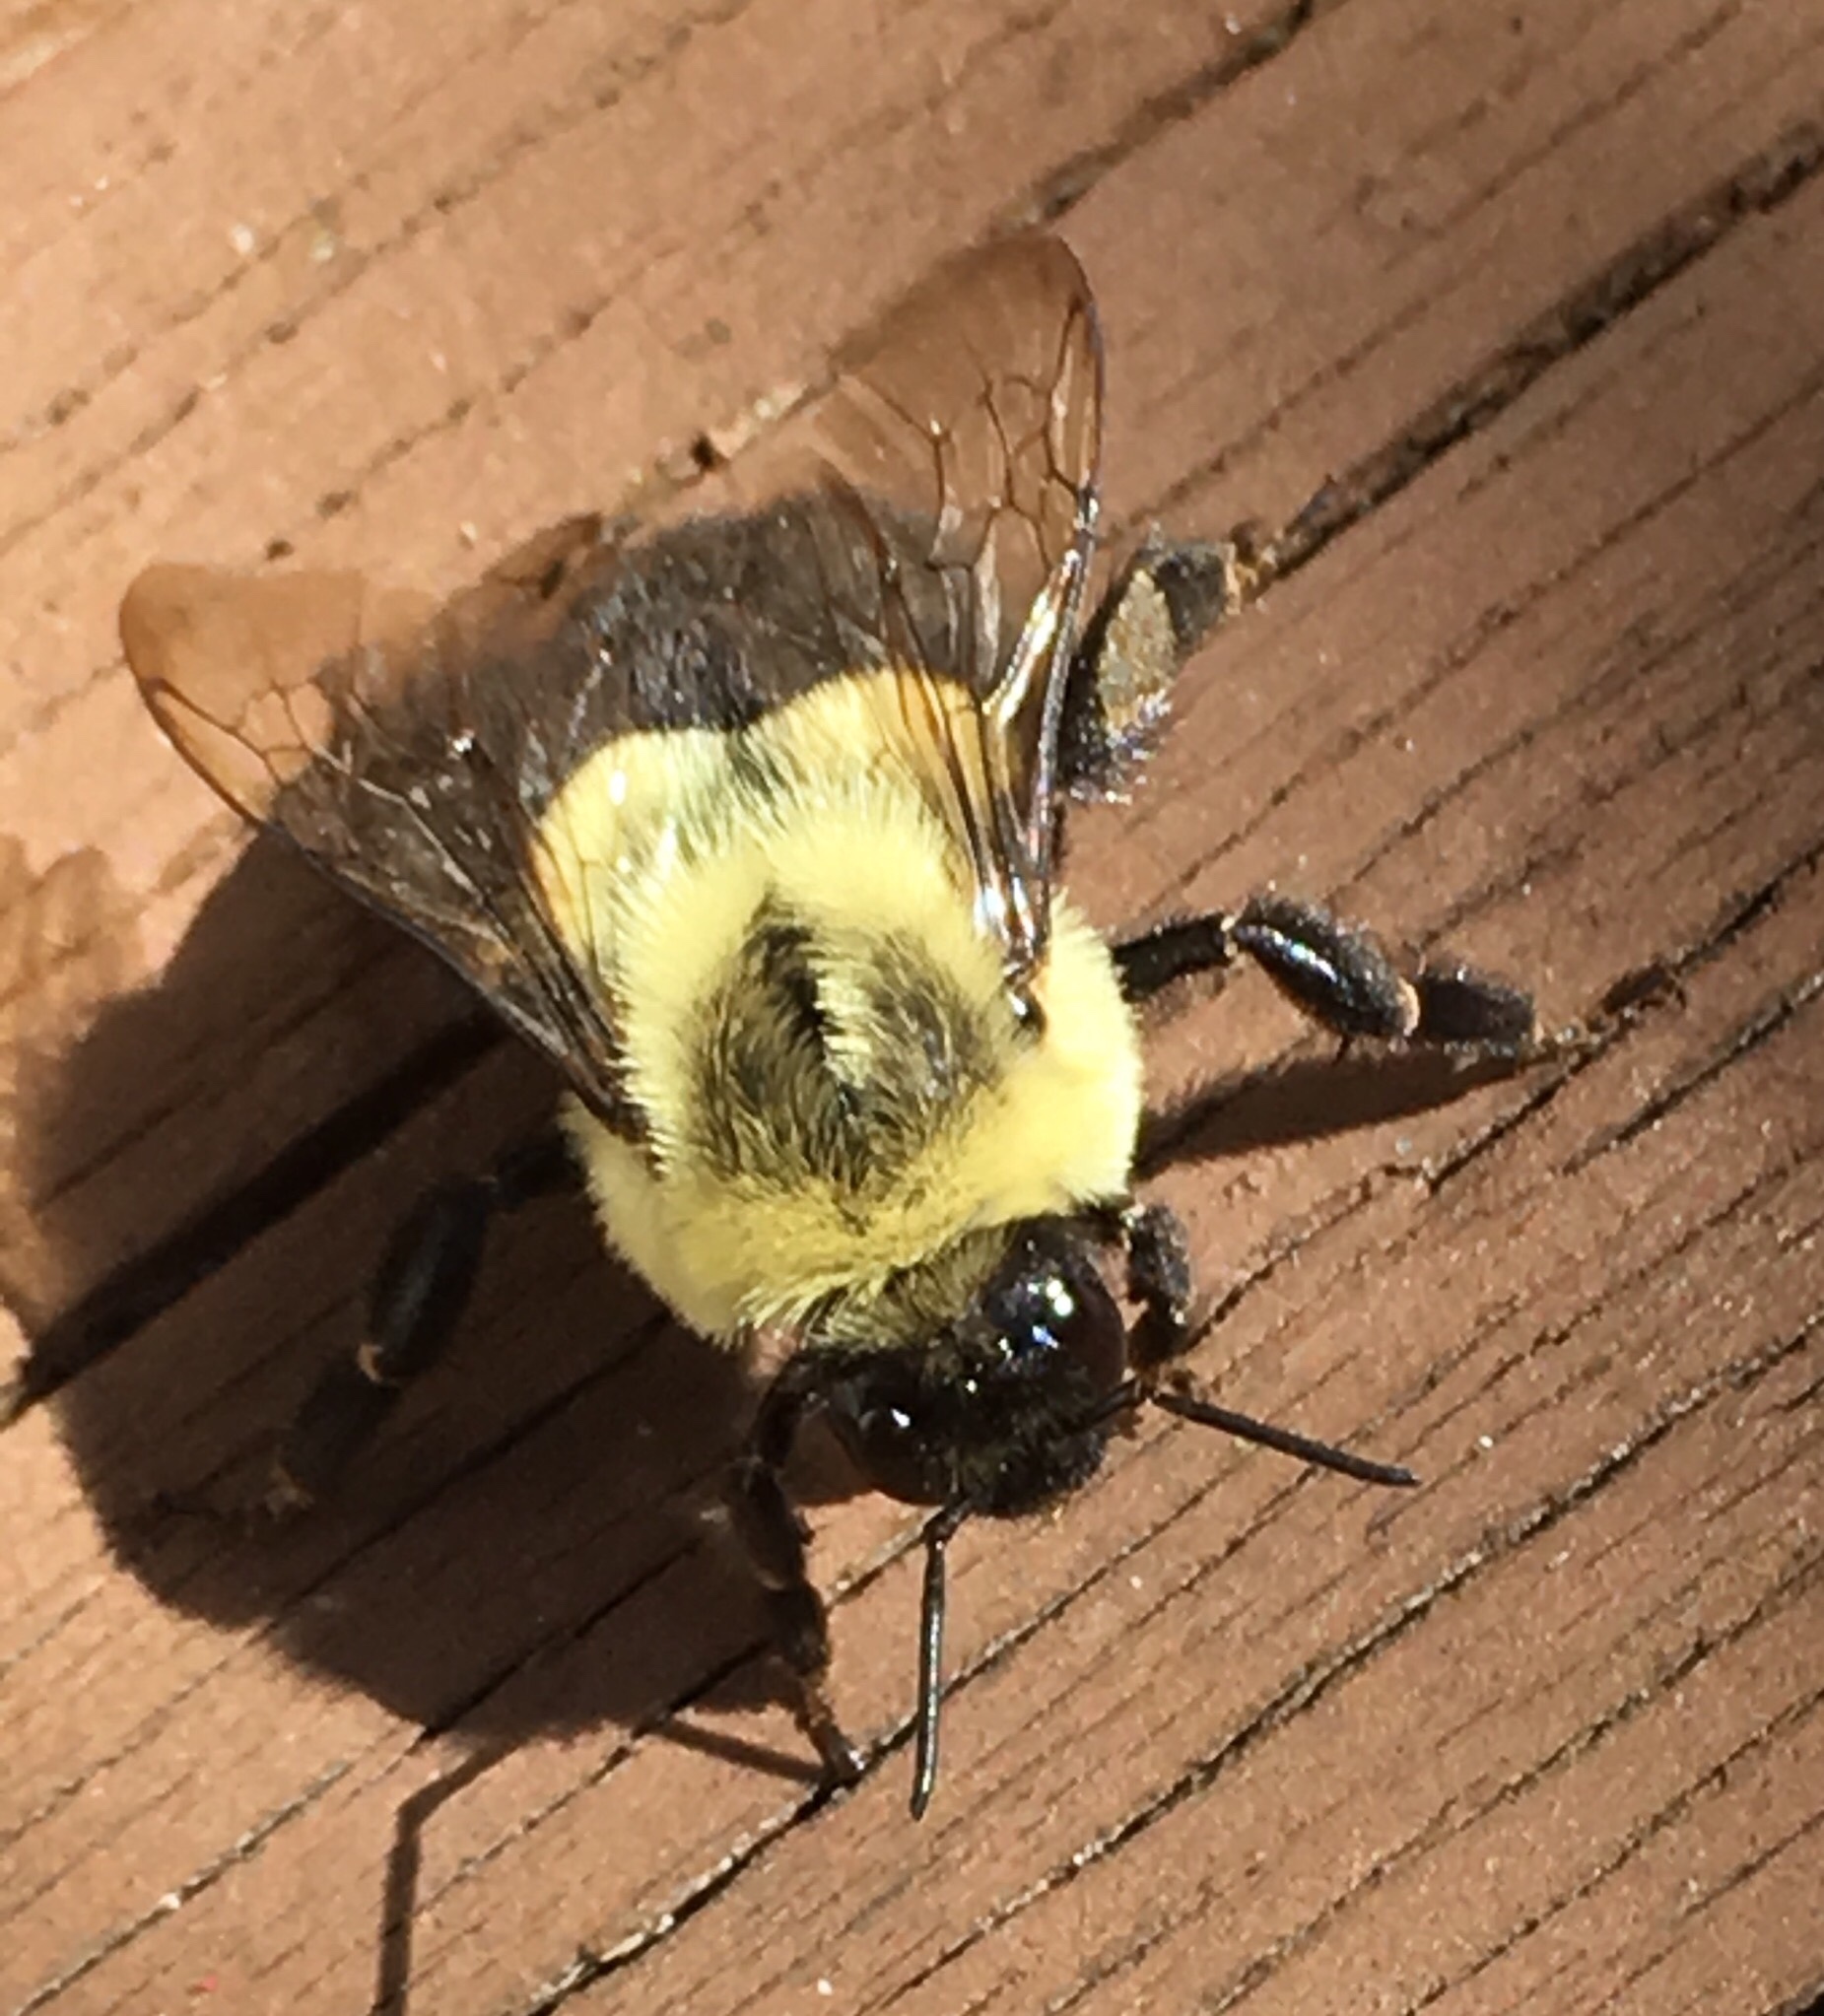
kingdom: Animalia
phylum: Arthropoda
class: Insecta
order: Hymenoptera
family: Apidae
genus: Bombus
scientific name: Bombus impatiens
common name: Common eastern bumble bee
